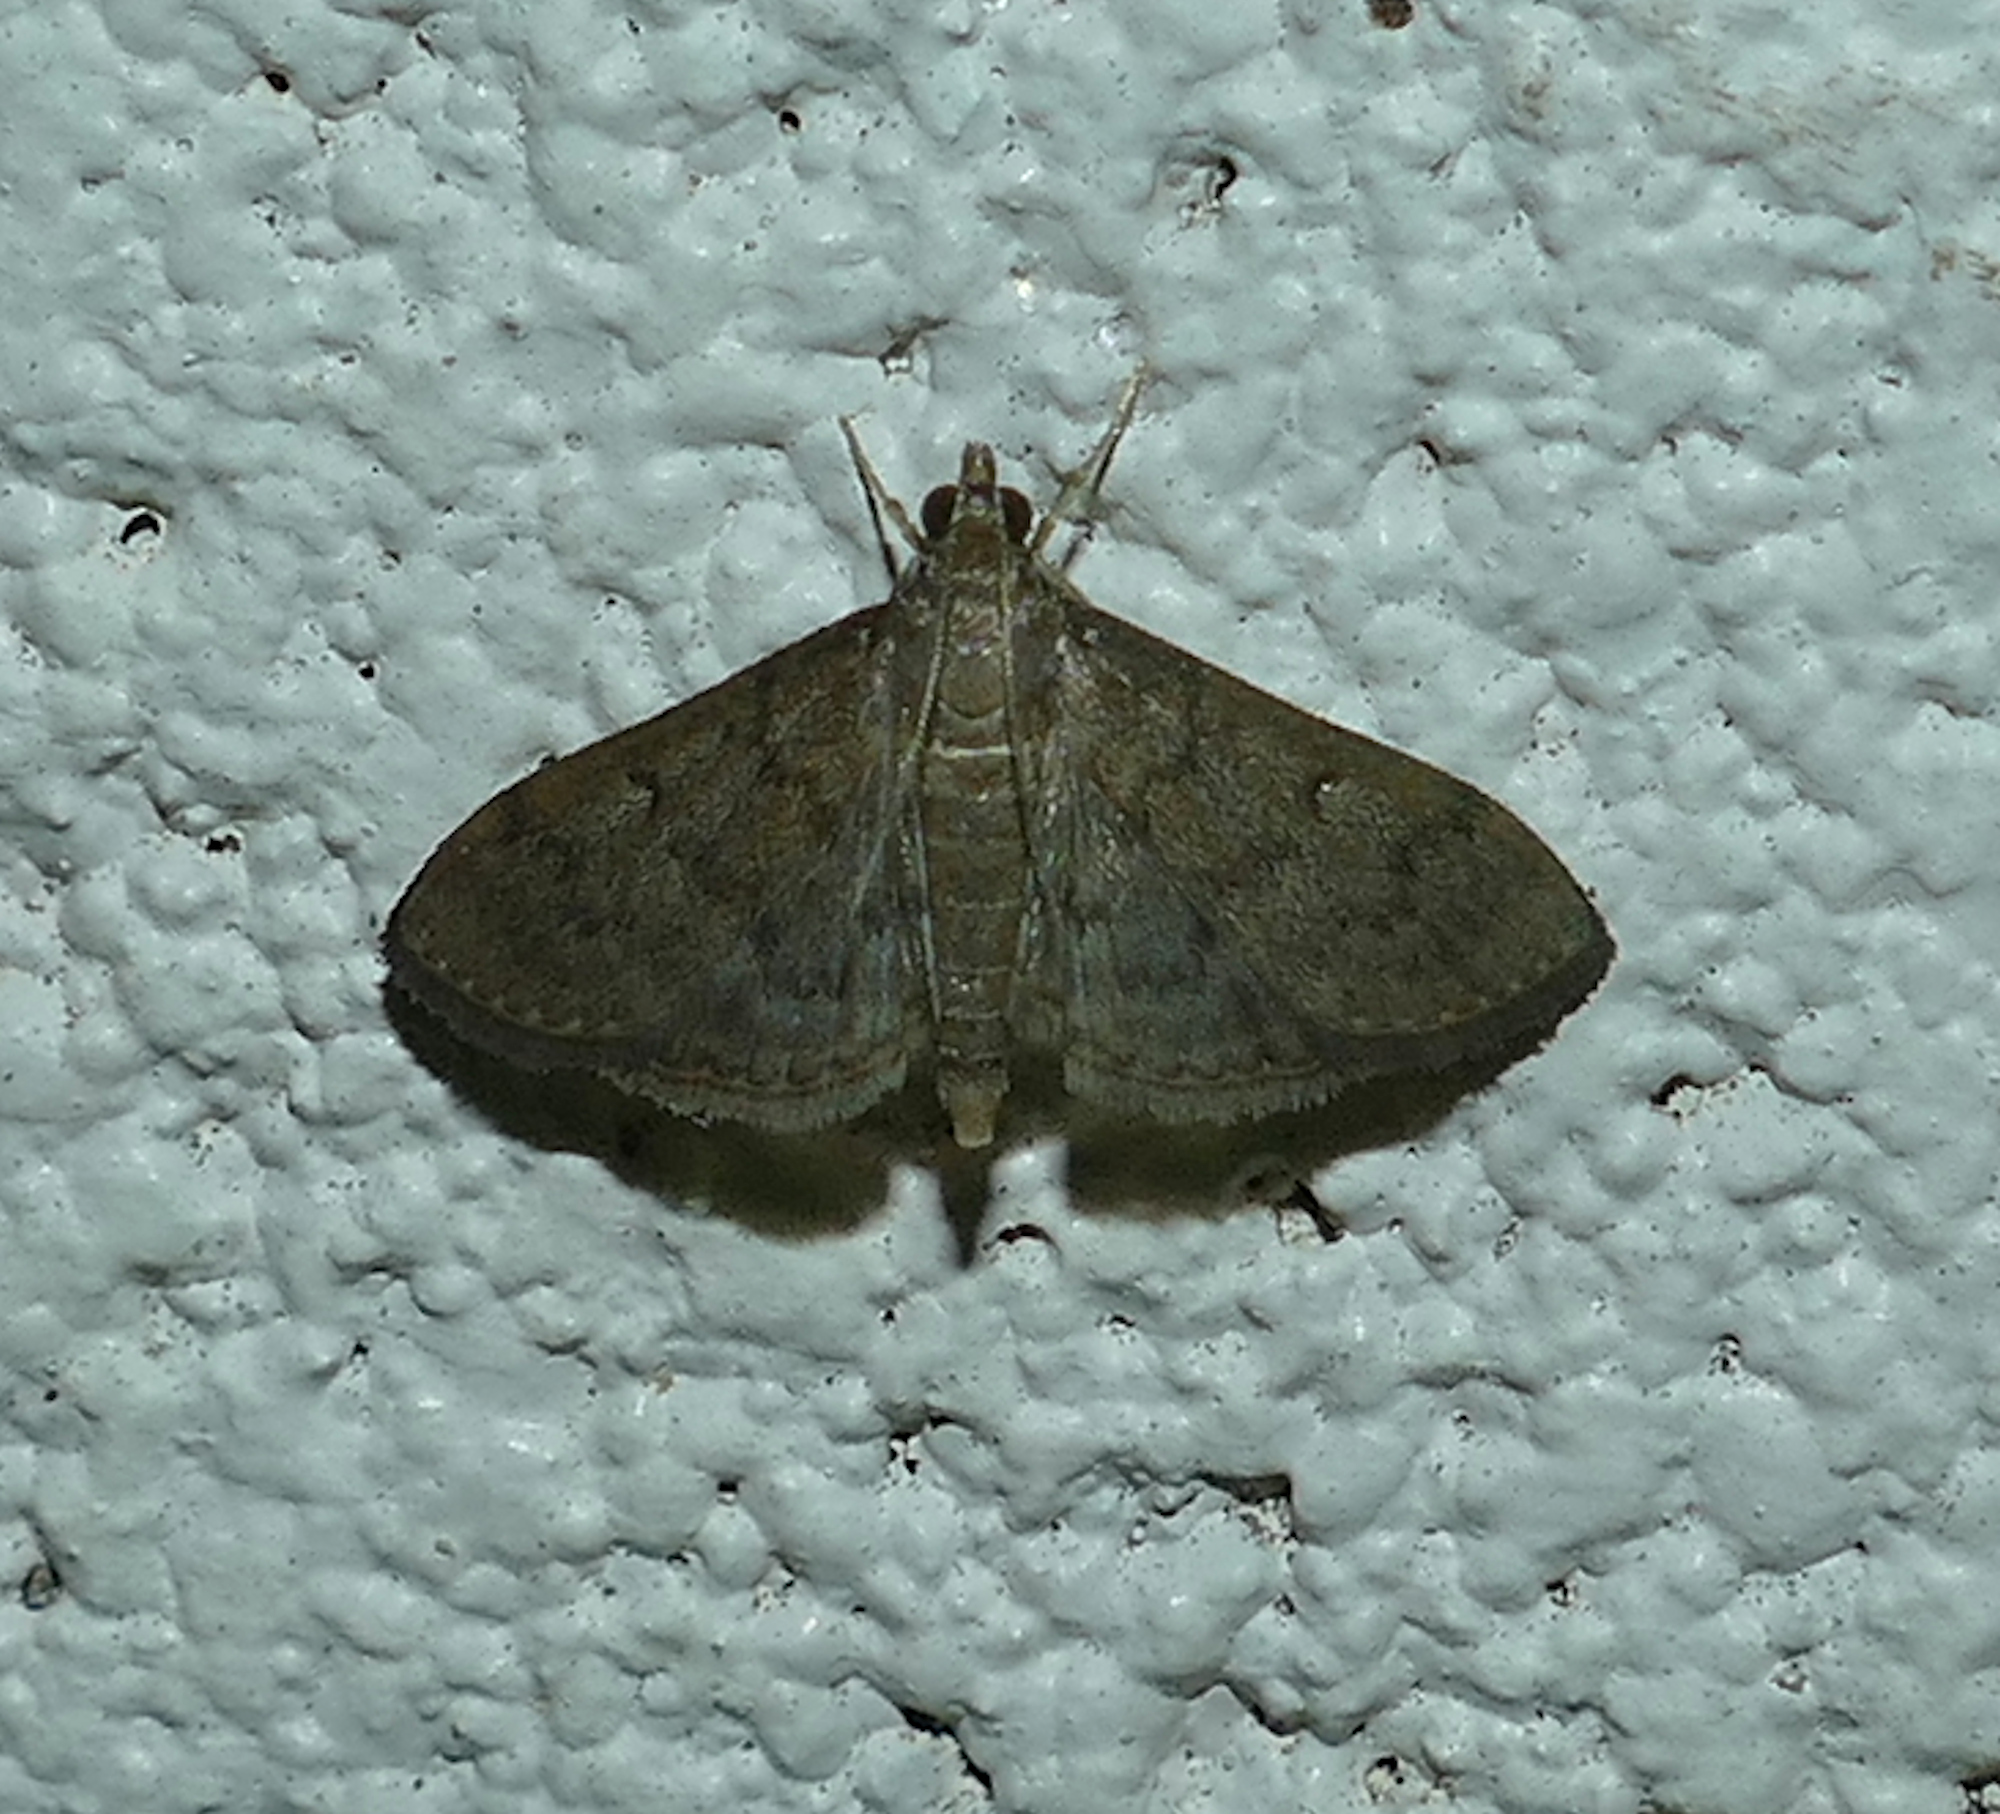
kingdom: Animalia
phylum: Arthropoda
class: Insecta
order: Lepidoptera
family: Crambidae
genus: Herpetogramma
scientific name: Herpetogramma phaeopteralis
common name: Dusky herpetogramma moth
